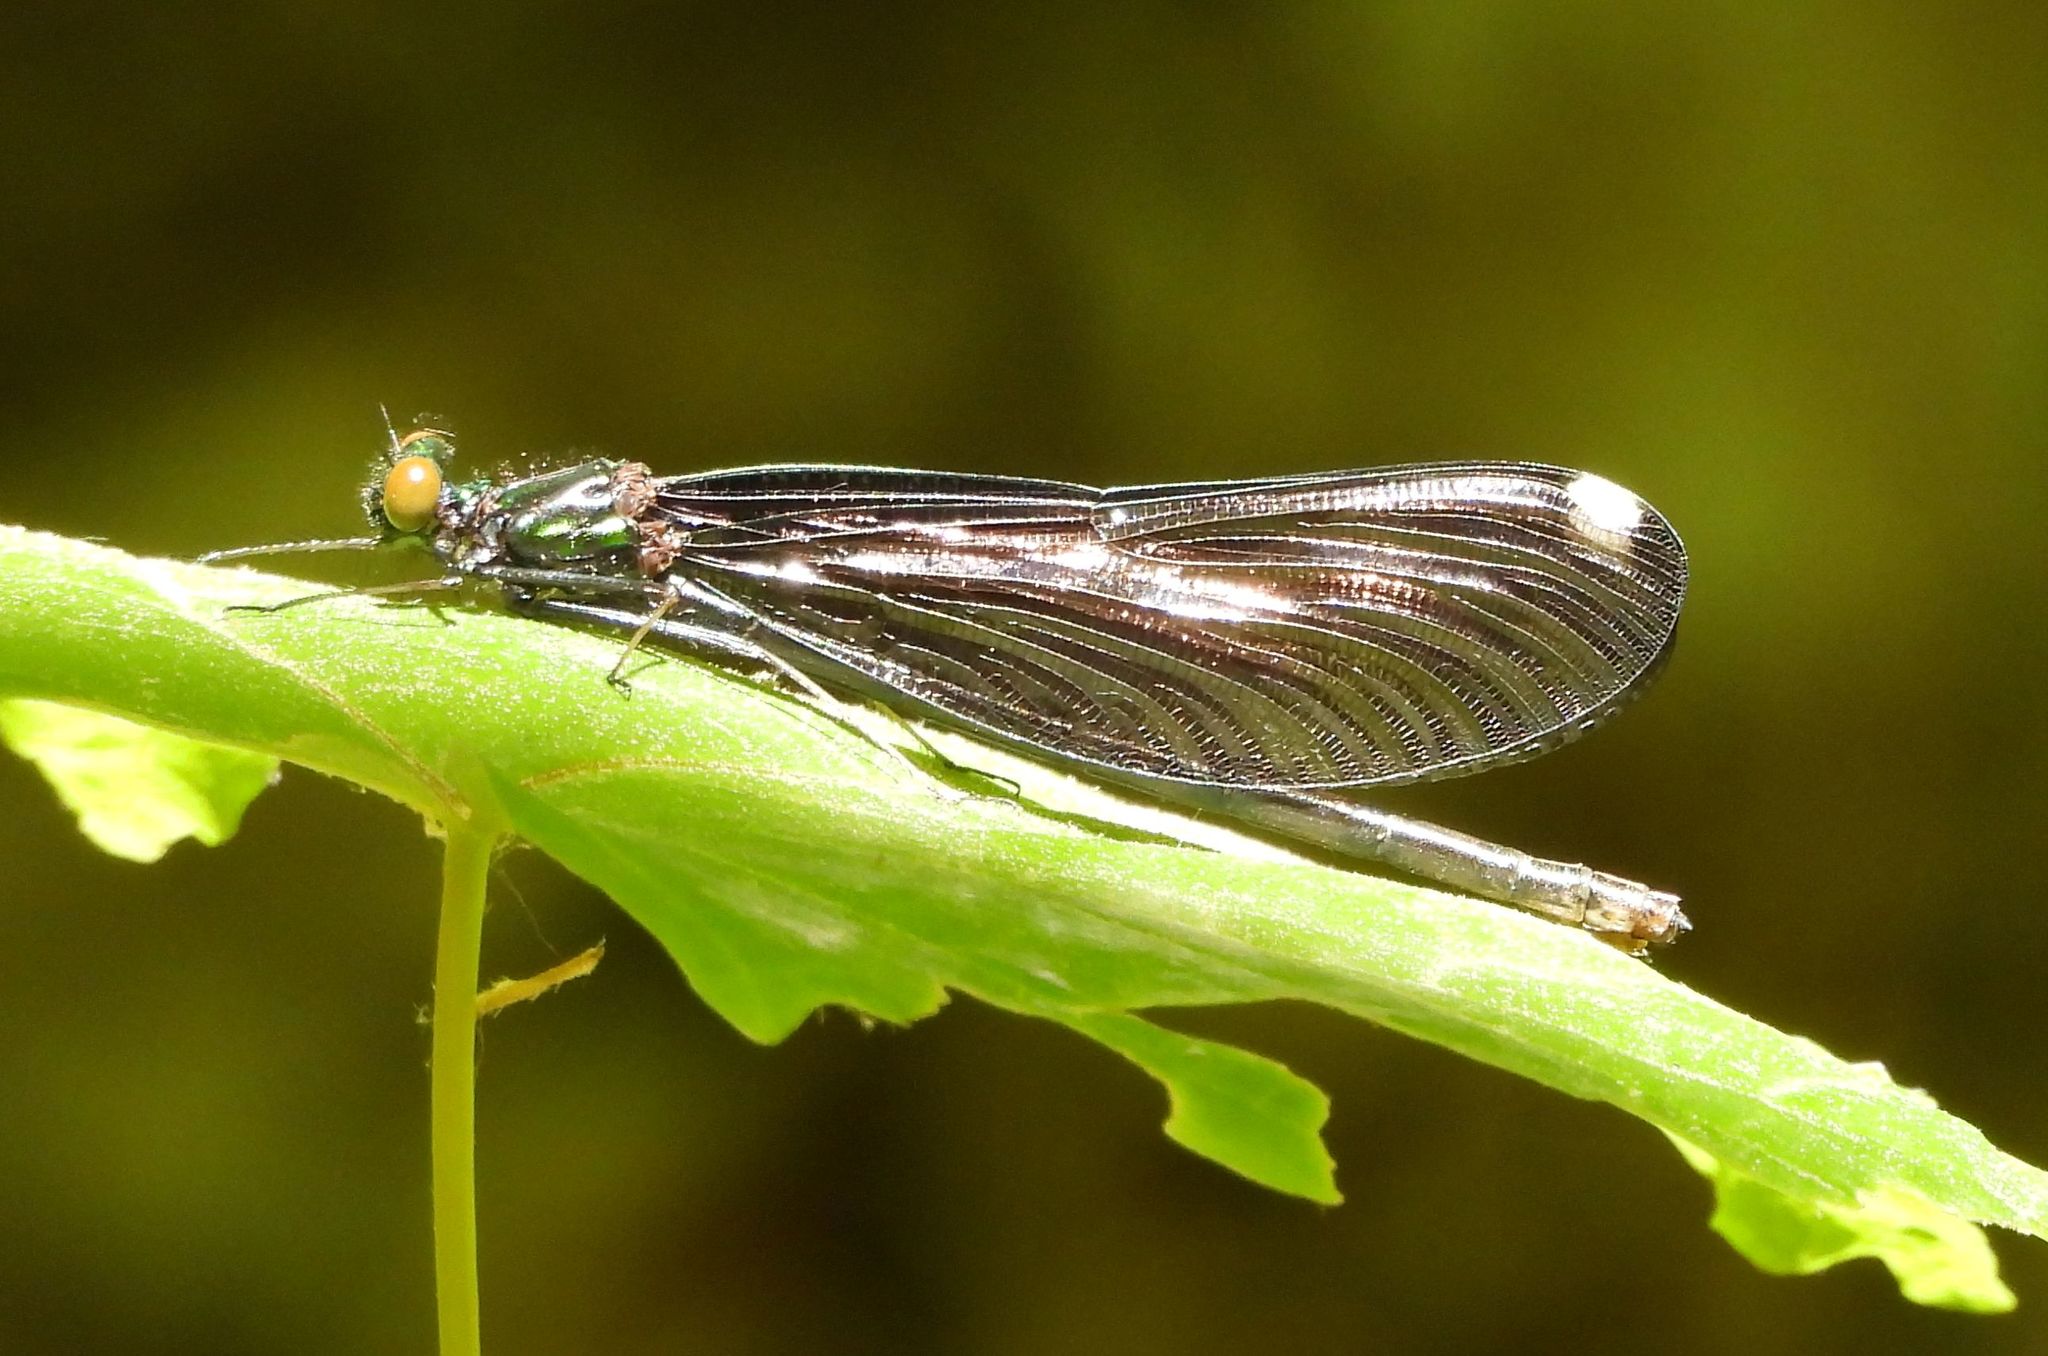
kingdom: Animalia
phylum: Arthropoda
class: Insecta
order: Odonata
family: Calopterygidae
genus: Calopteryx
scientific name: Calopteryx maculata
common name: Ebony jewelwing
